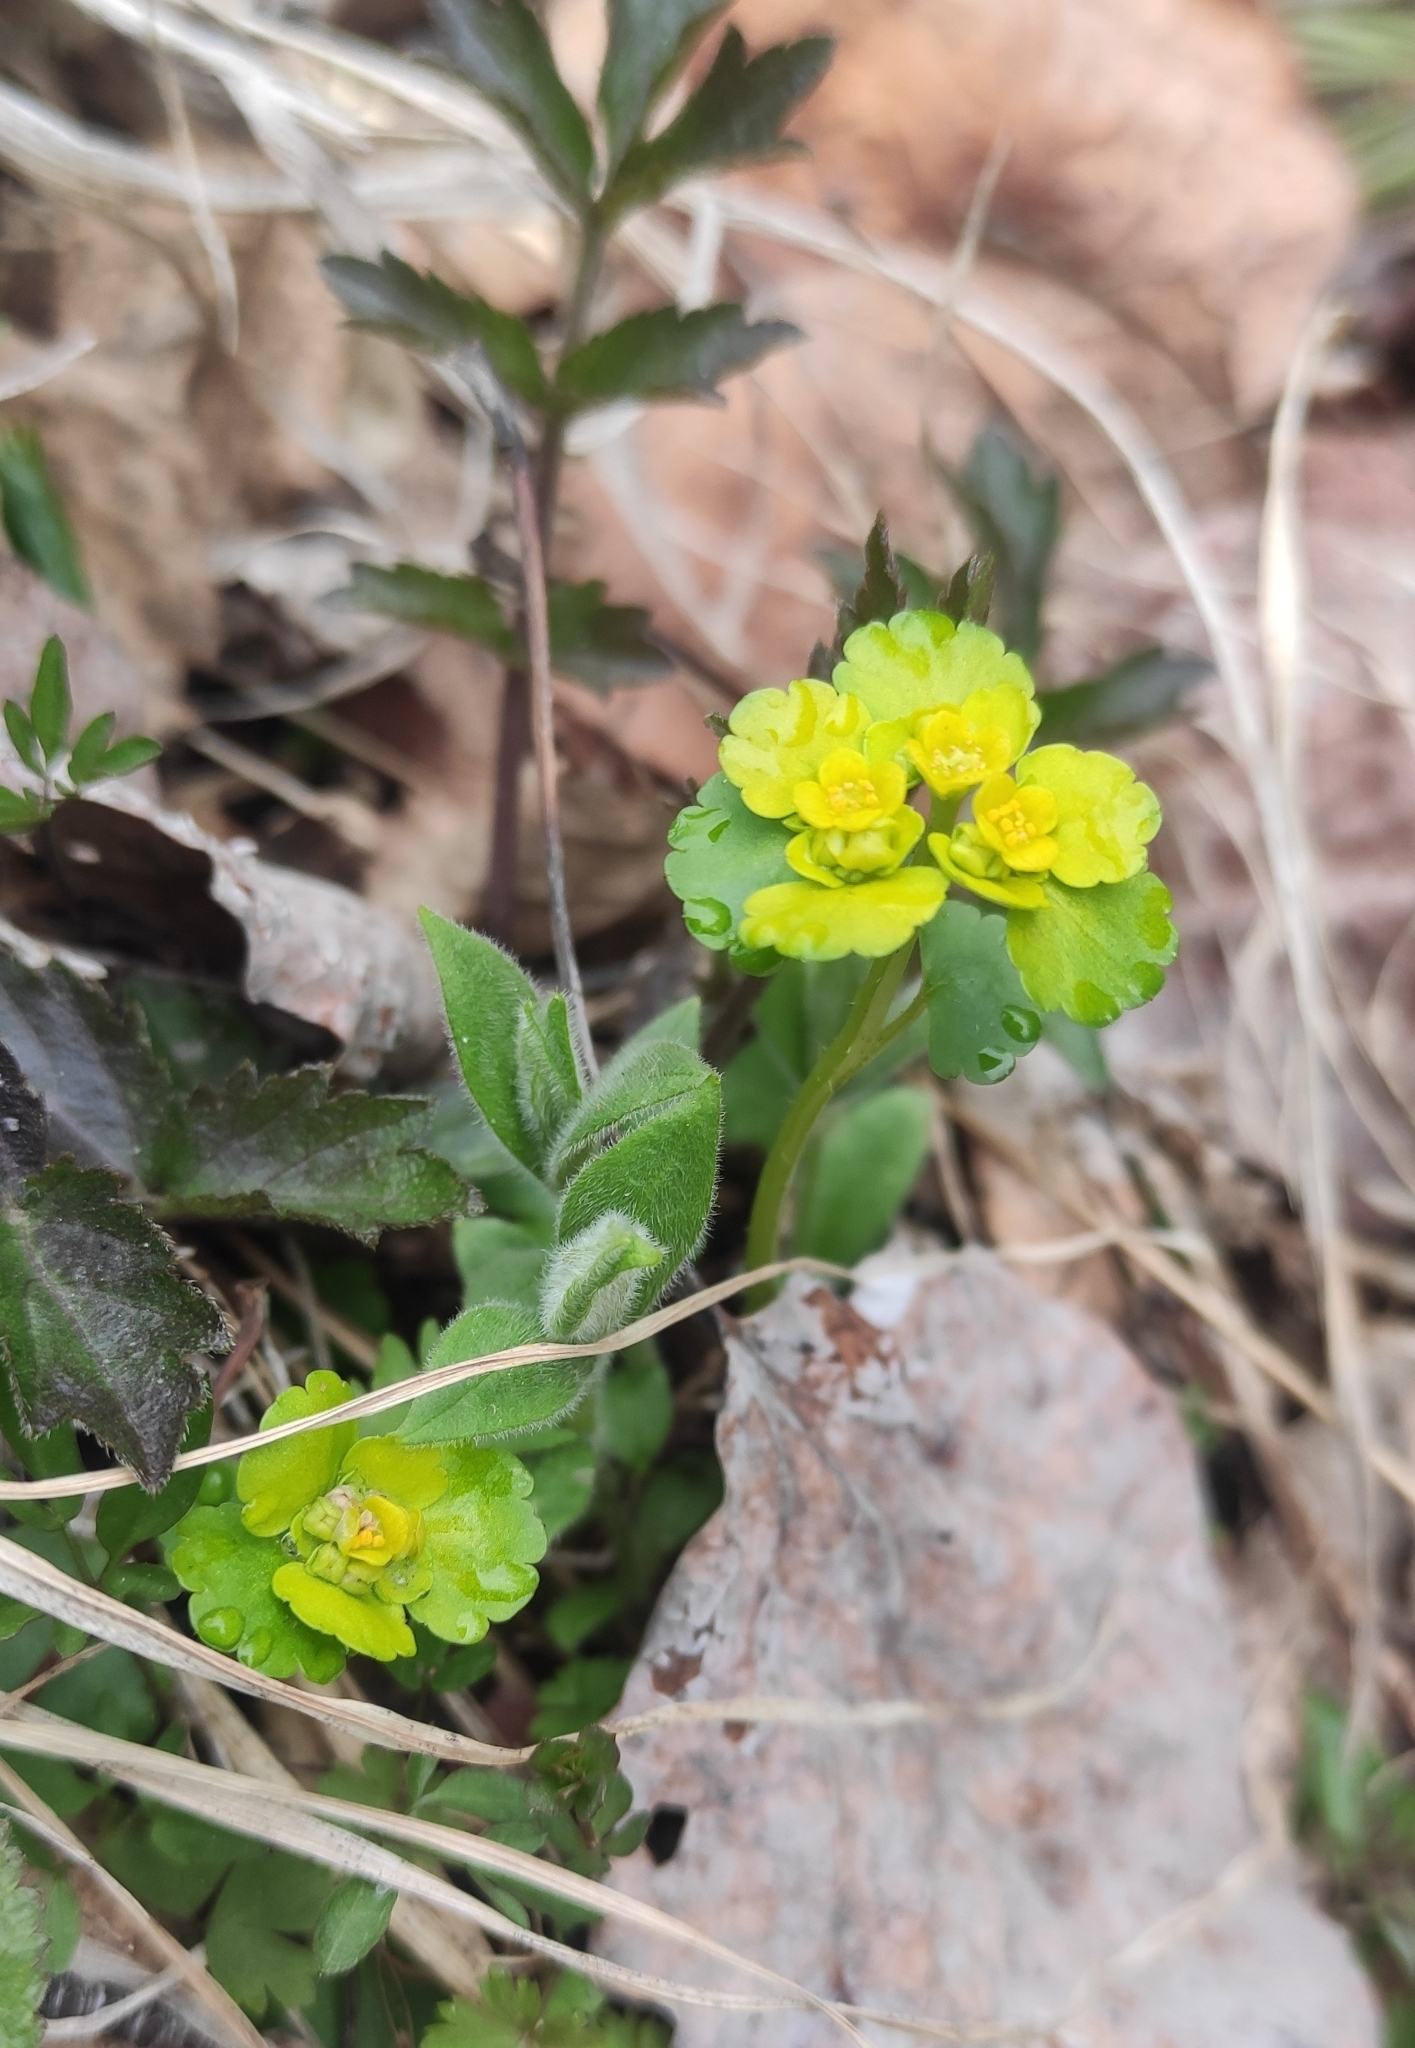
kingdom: Plantae
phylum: Tracheophyta
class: Magnoliopsida
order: Saxifragales
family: Saxifragaceae
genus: Chrysosplenium
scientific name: Chrysosplenium sibiricum
